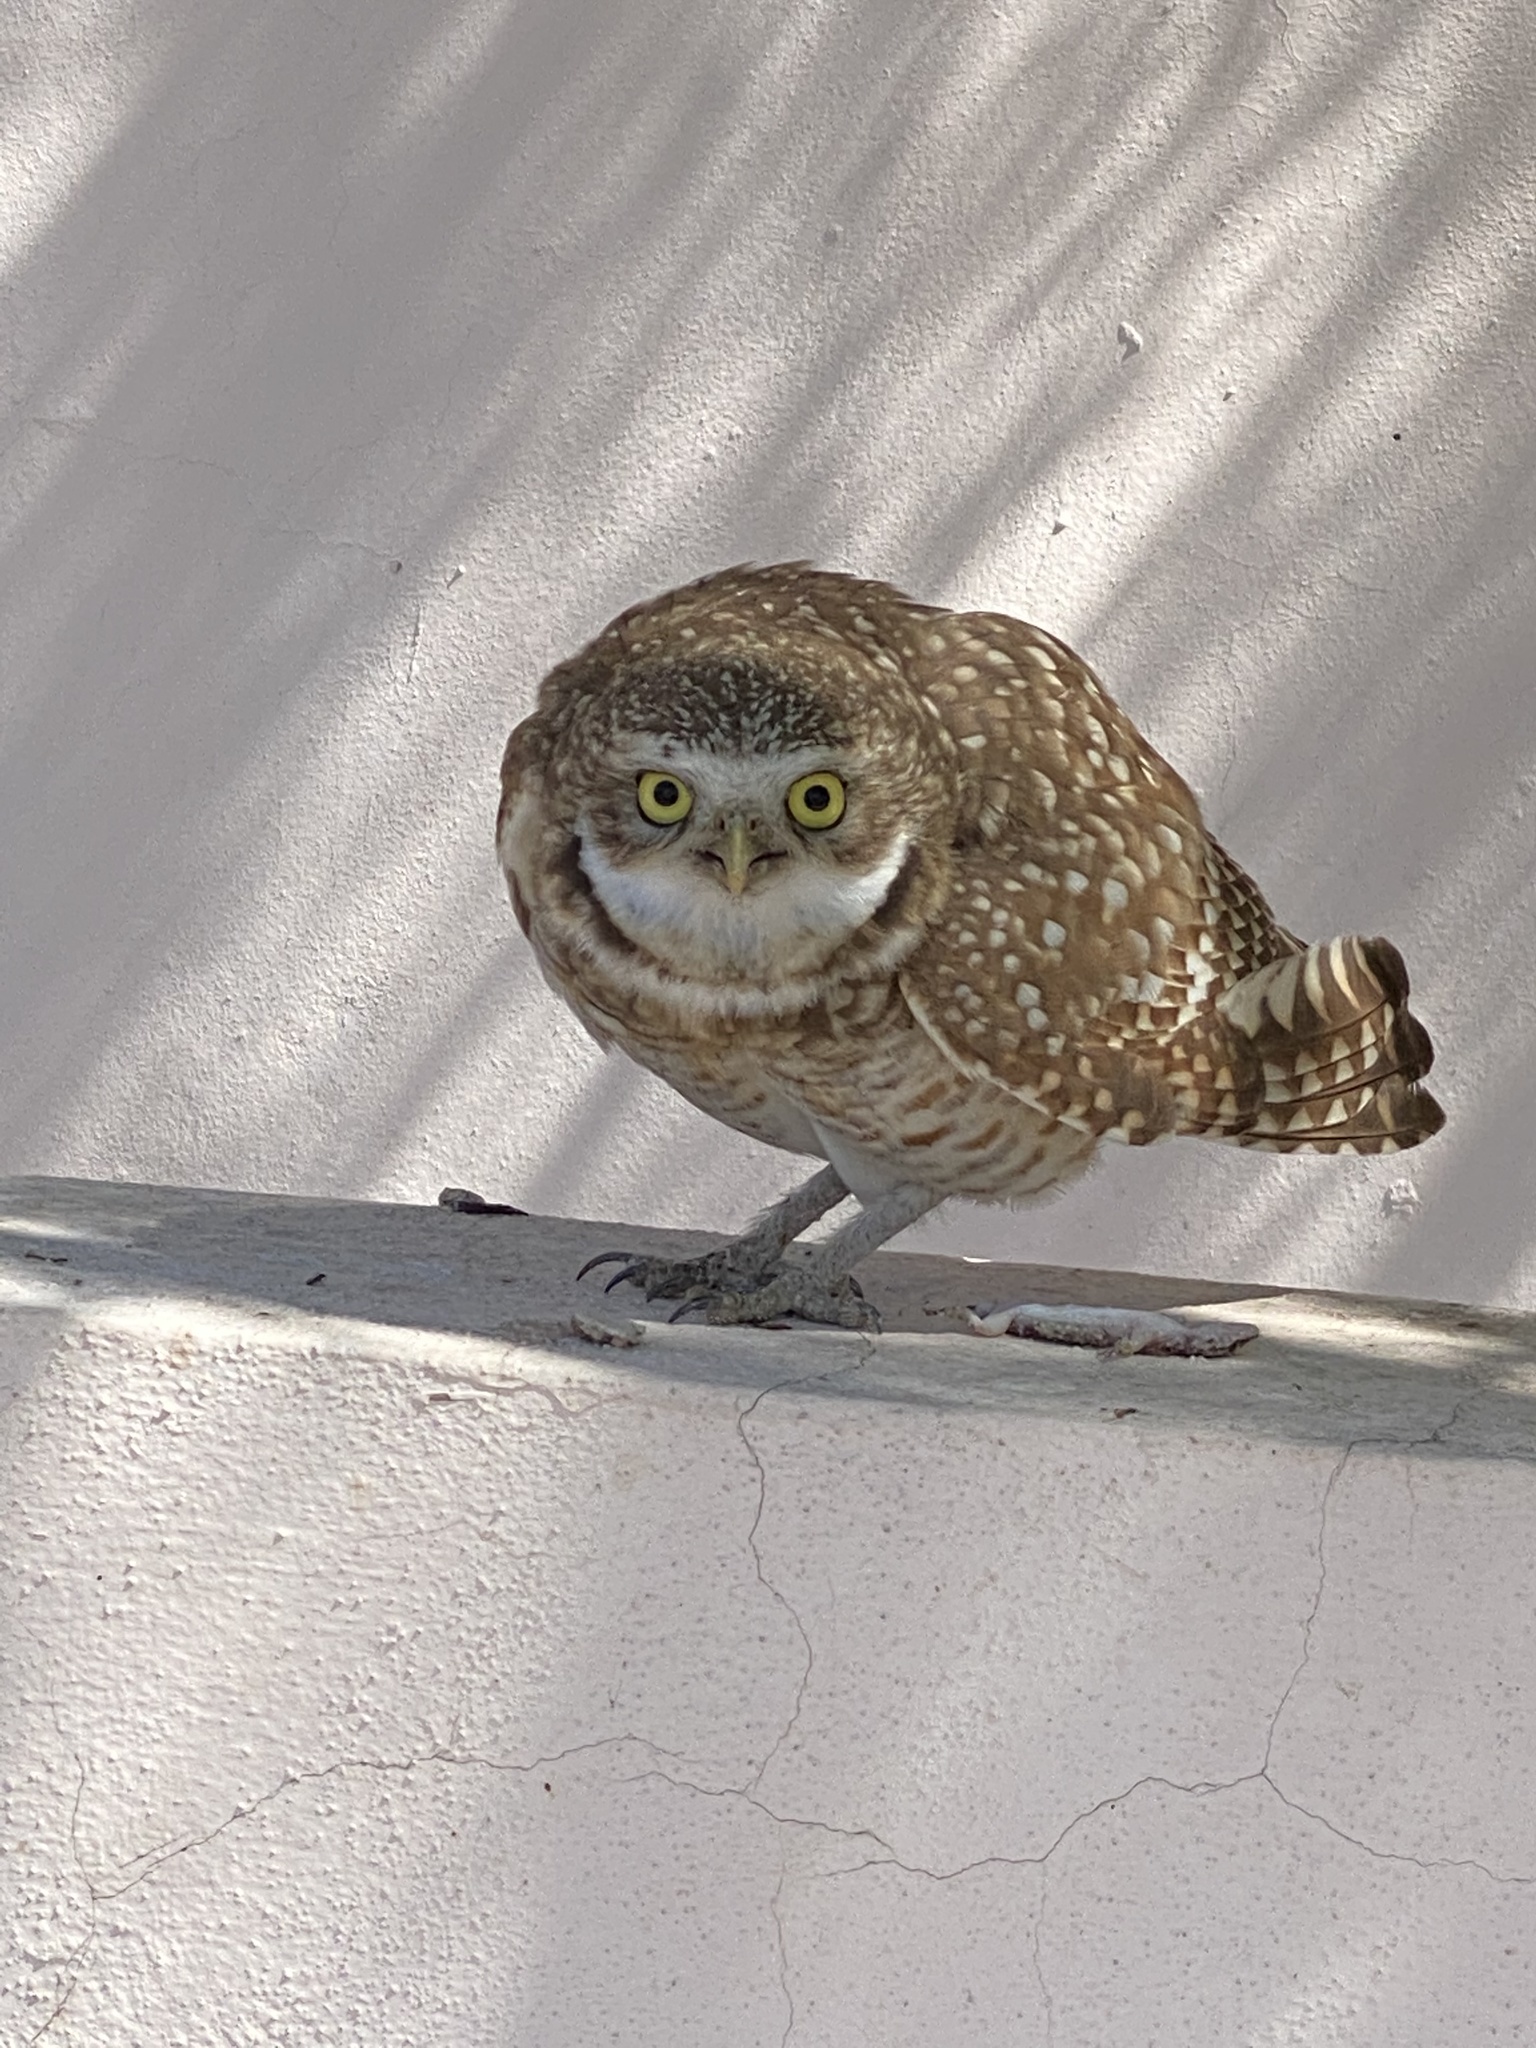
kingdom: Animalia
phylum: Chordata
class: Aves
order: Strigiformes
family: Strigidae
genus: Athene
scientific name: Athene cunicularia
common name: Burrowing owl
